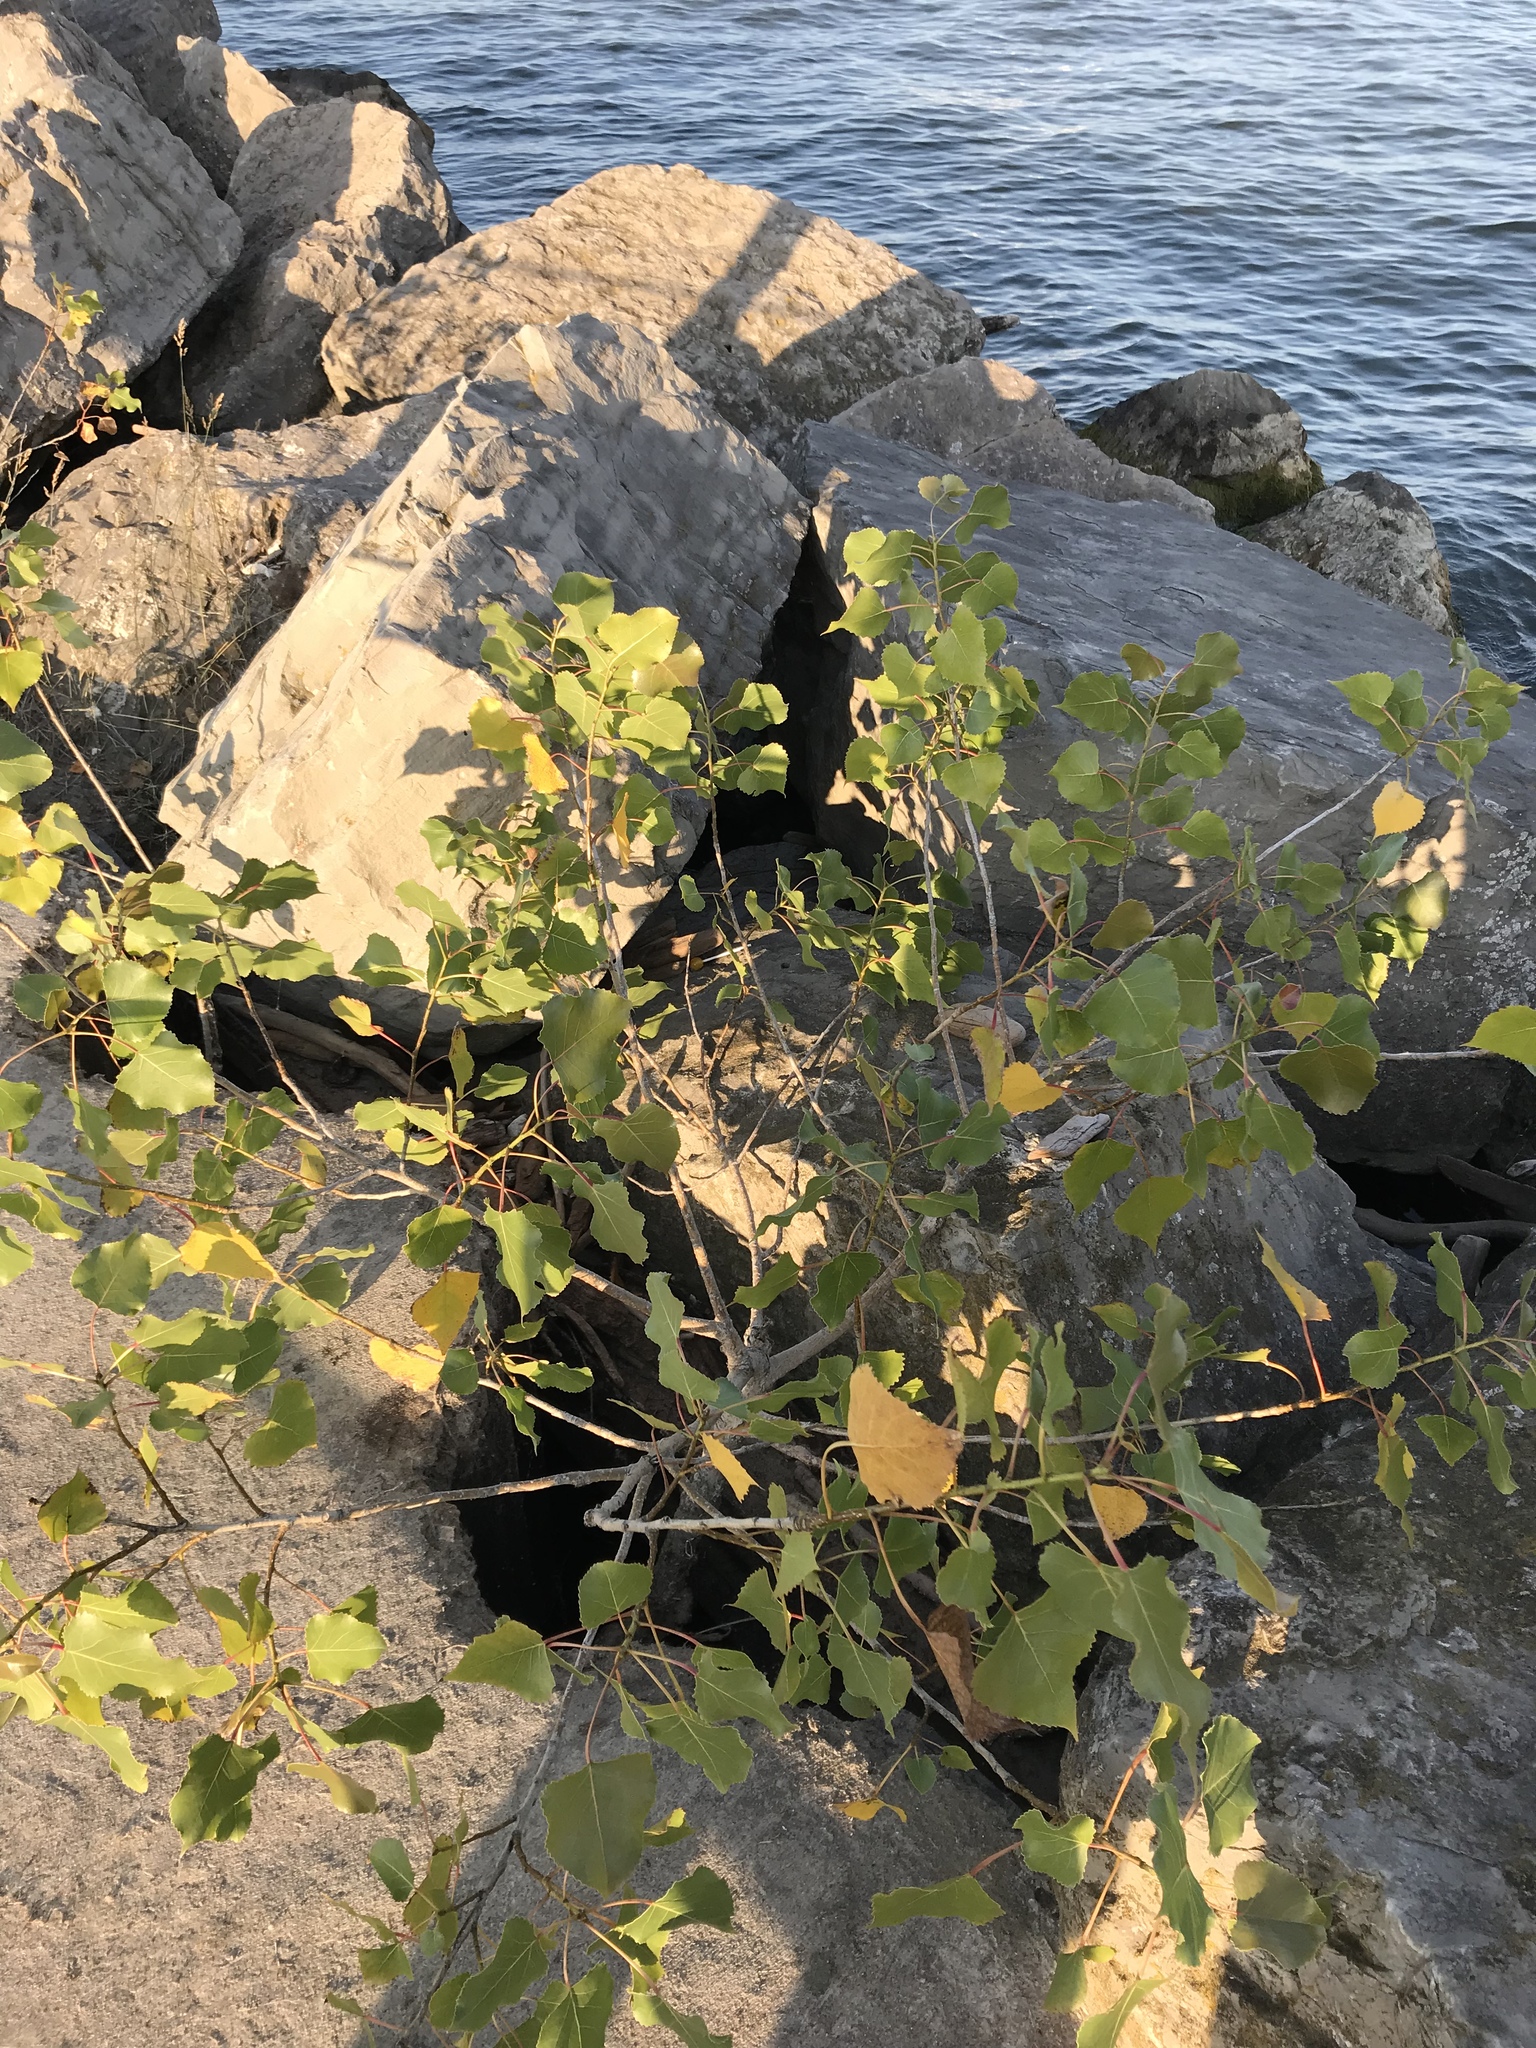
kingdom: Plantae
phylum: Tracheophyta
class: Magnoliopsida
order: Malpighiales
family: Salicaceae
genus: Populus
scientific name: Populus deltoides
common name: Eastern cottonwood
